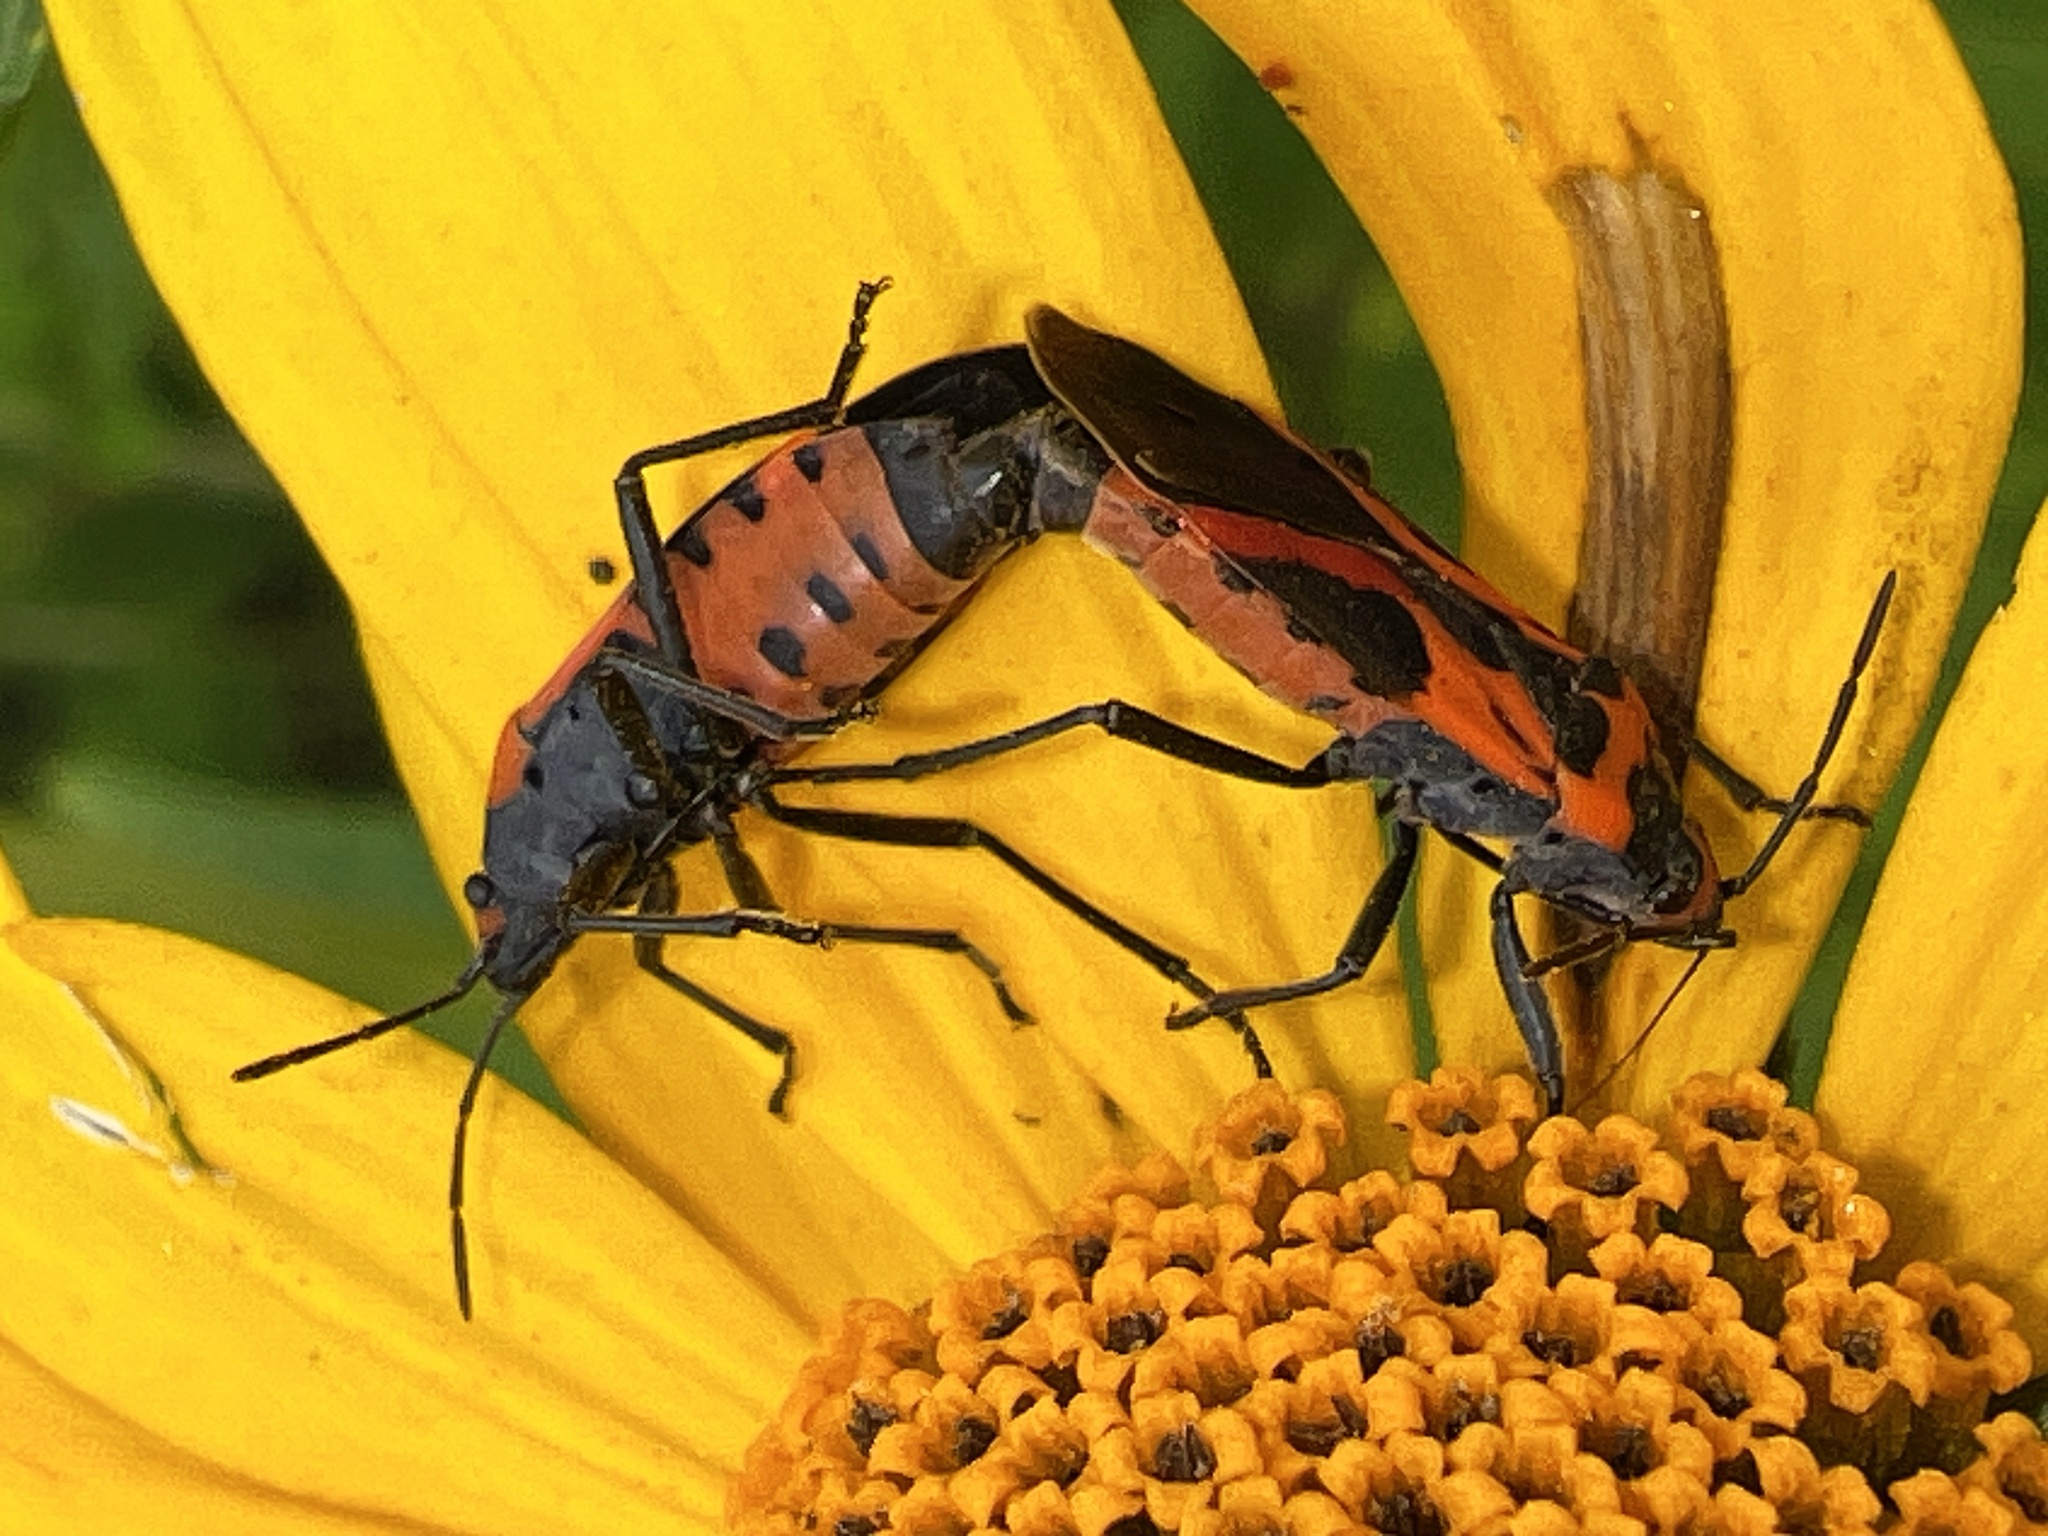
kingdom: Animalia
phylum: Arthropoda
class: Insecta
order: Hemiptera
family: Lygaeidae
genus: Lygaeus
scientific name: Lygaeus turcicus
